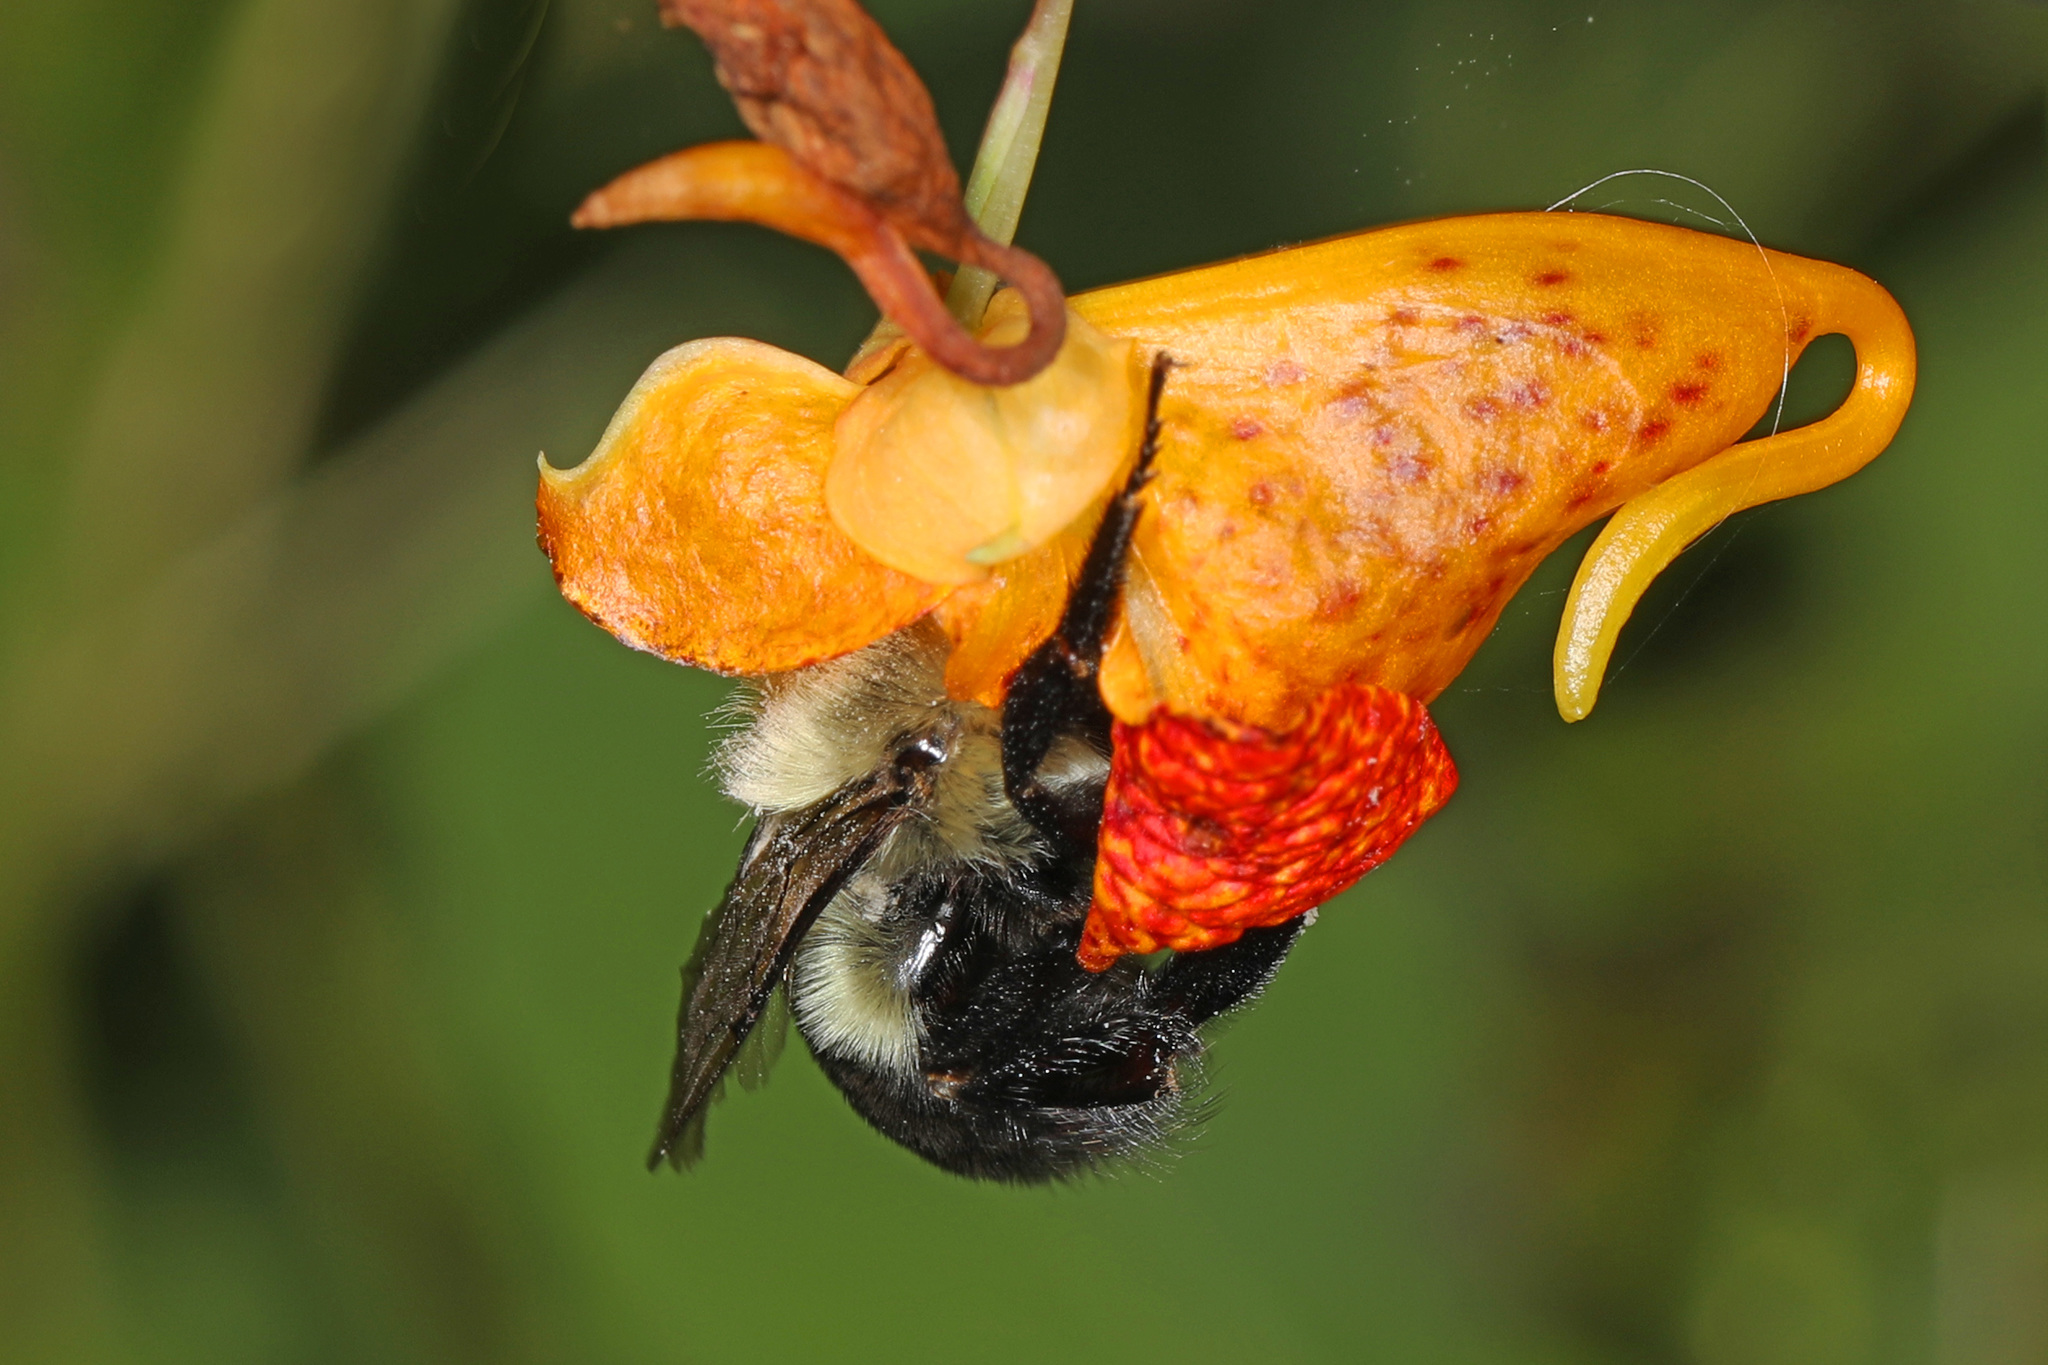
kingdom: Animalia
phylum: Arthropoda
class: Insecta
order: Hymenoptera
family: Apidae
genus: Bombus
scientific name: Bombus impatiens
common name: Common eastern bumble bee
